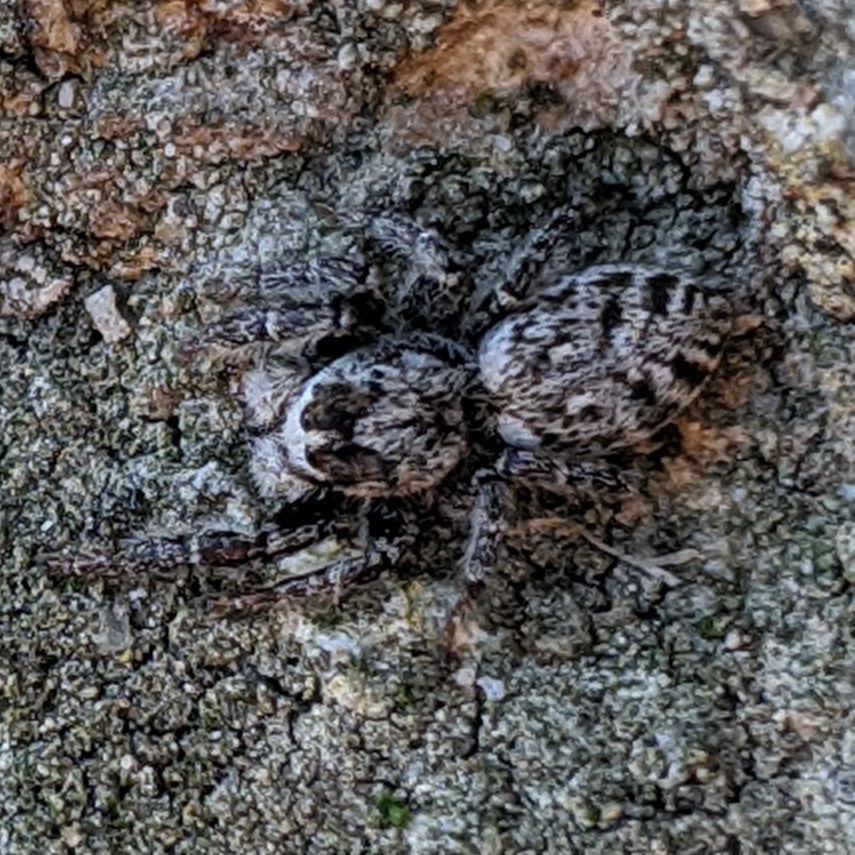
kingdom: Animalia
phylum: Arthropoda
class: Arachnida
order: Araneae
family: Salticidae
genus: Phanias
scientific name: Phanias albeolus
